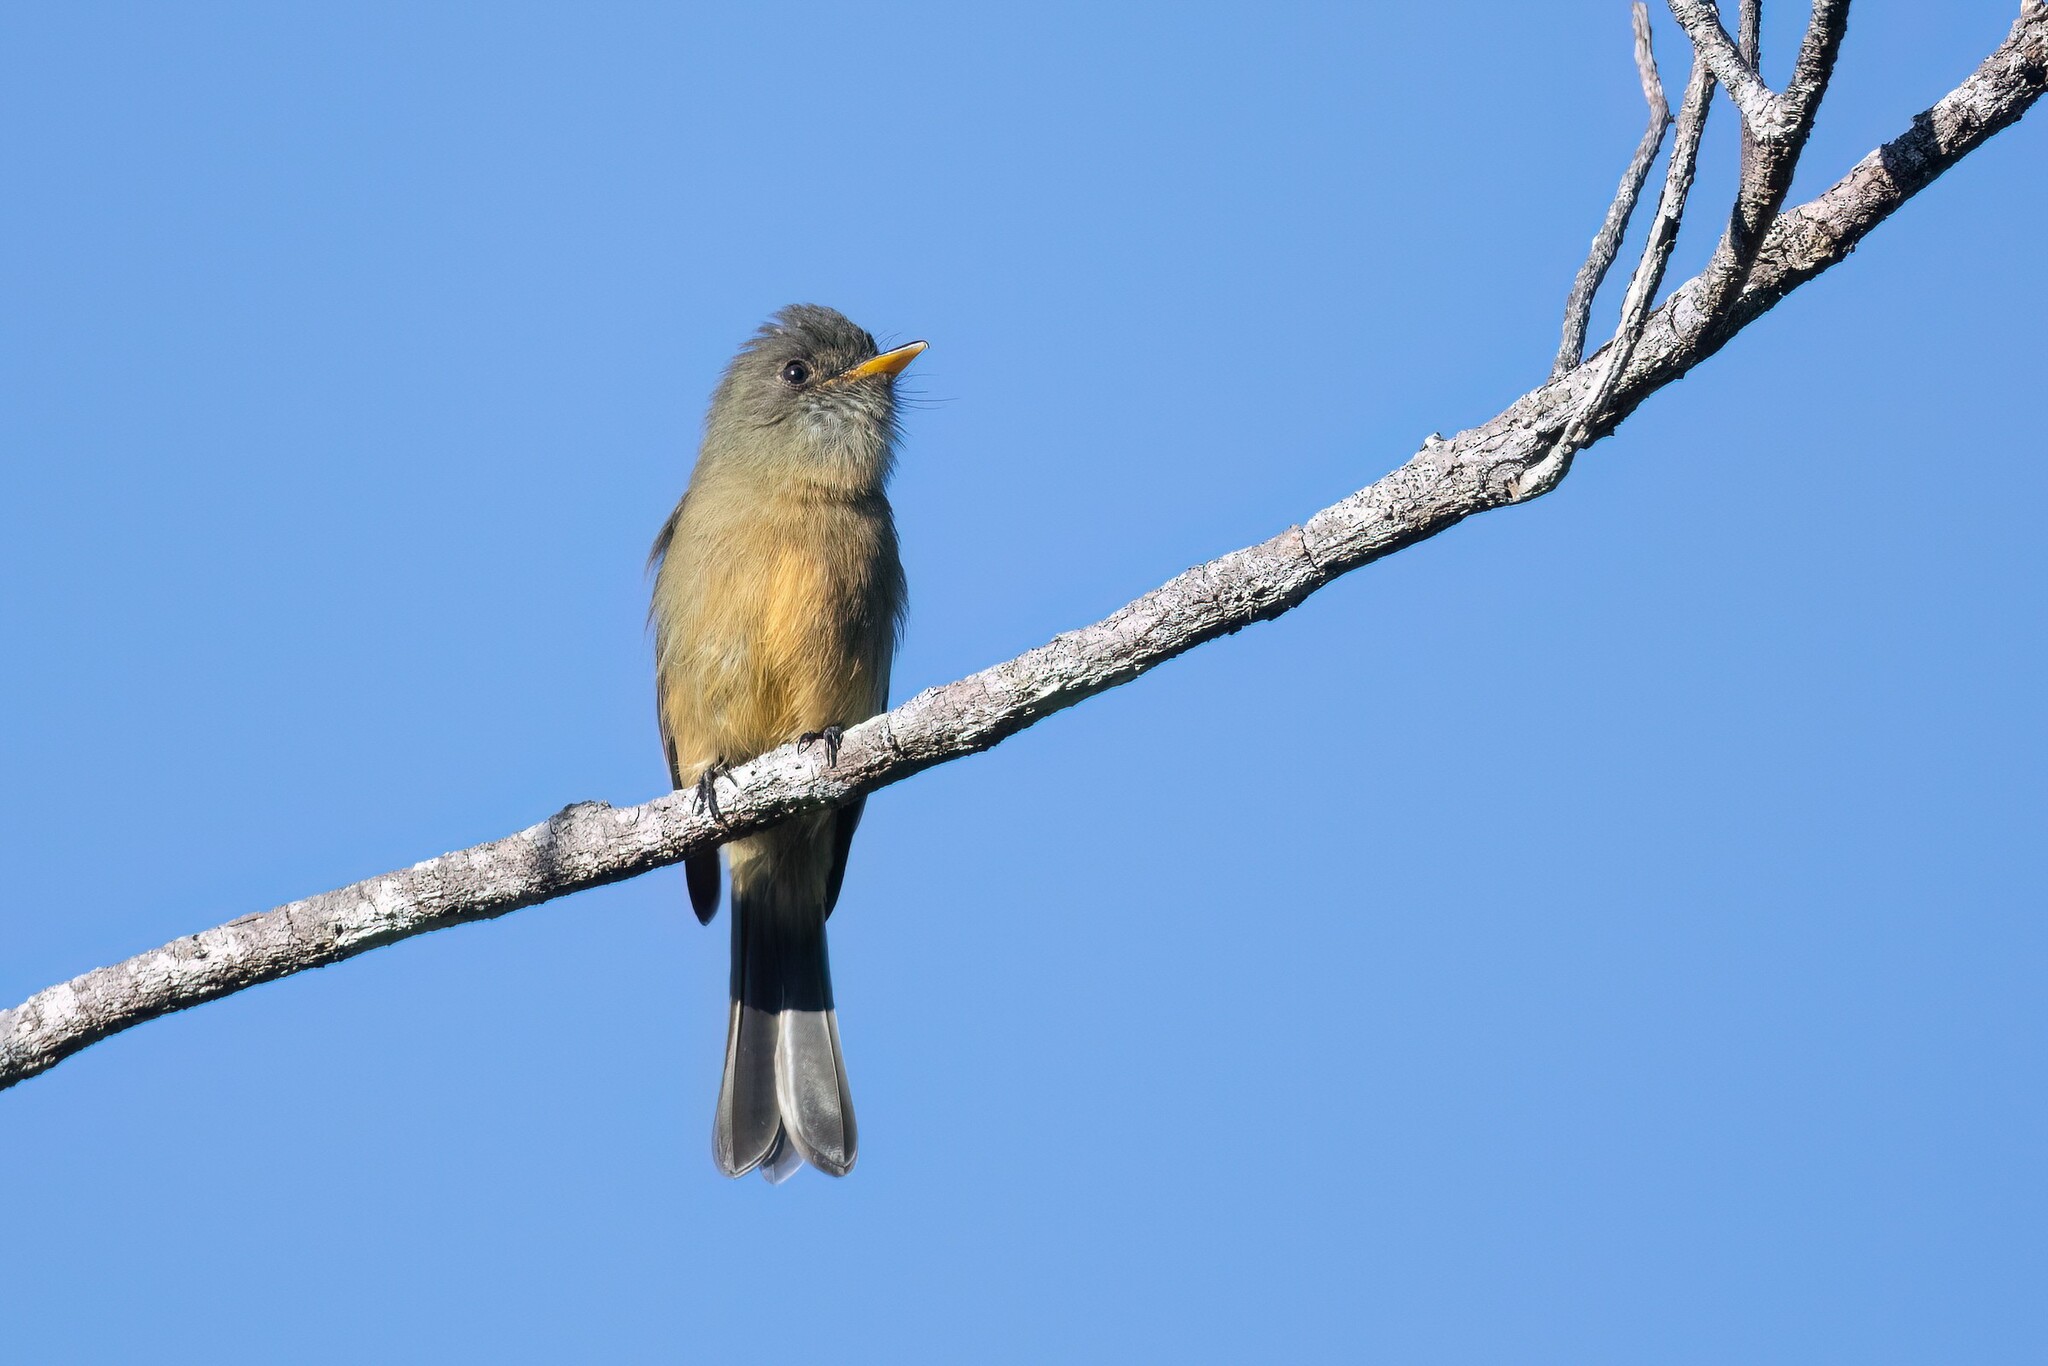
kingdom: Animalia
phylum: Chordata
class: Aves
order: Passeriformes
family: Tyrannidae
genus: Contopus
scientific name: Contopus latirostris
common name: Lesser antillean pewee
